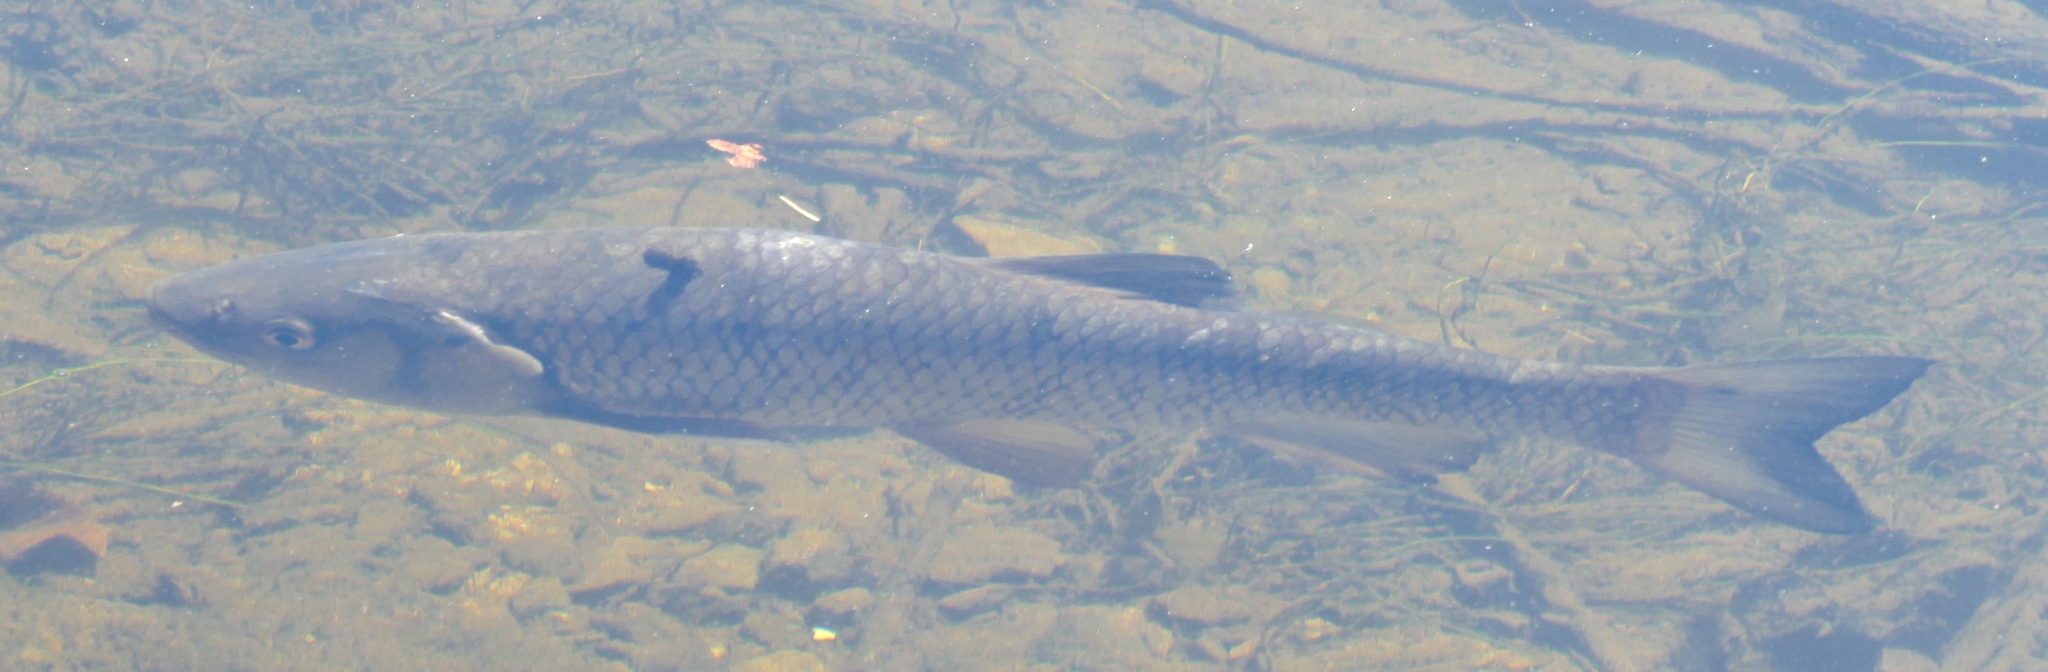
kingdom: Animalia
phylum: Chordata
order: Cypriniformes
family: Cyprinidae
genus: Squalius
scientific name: Squalius cephalus
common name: Chub
